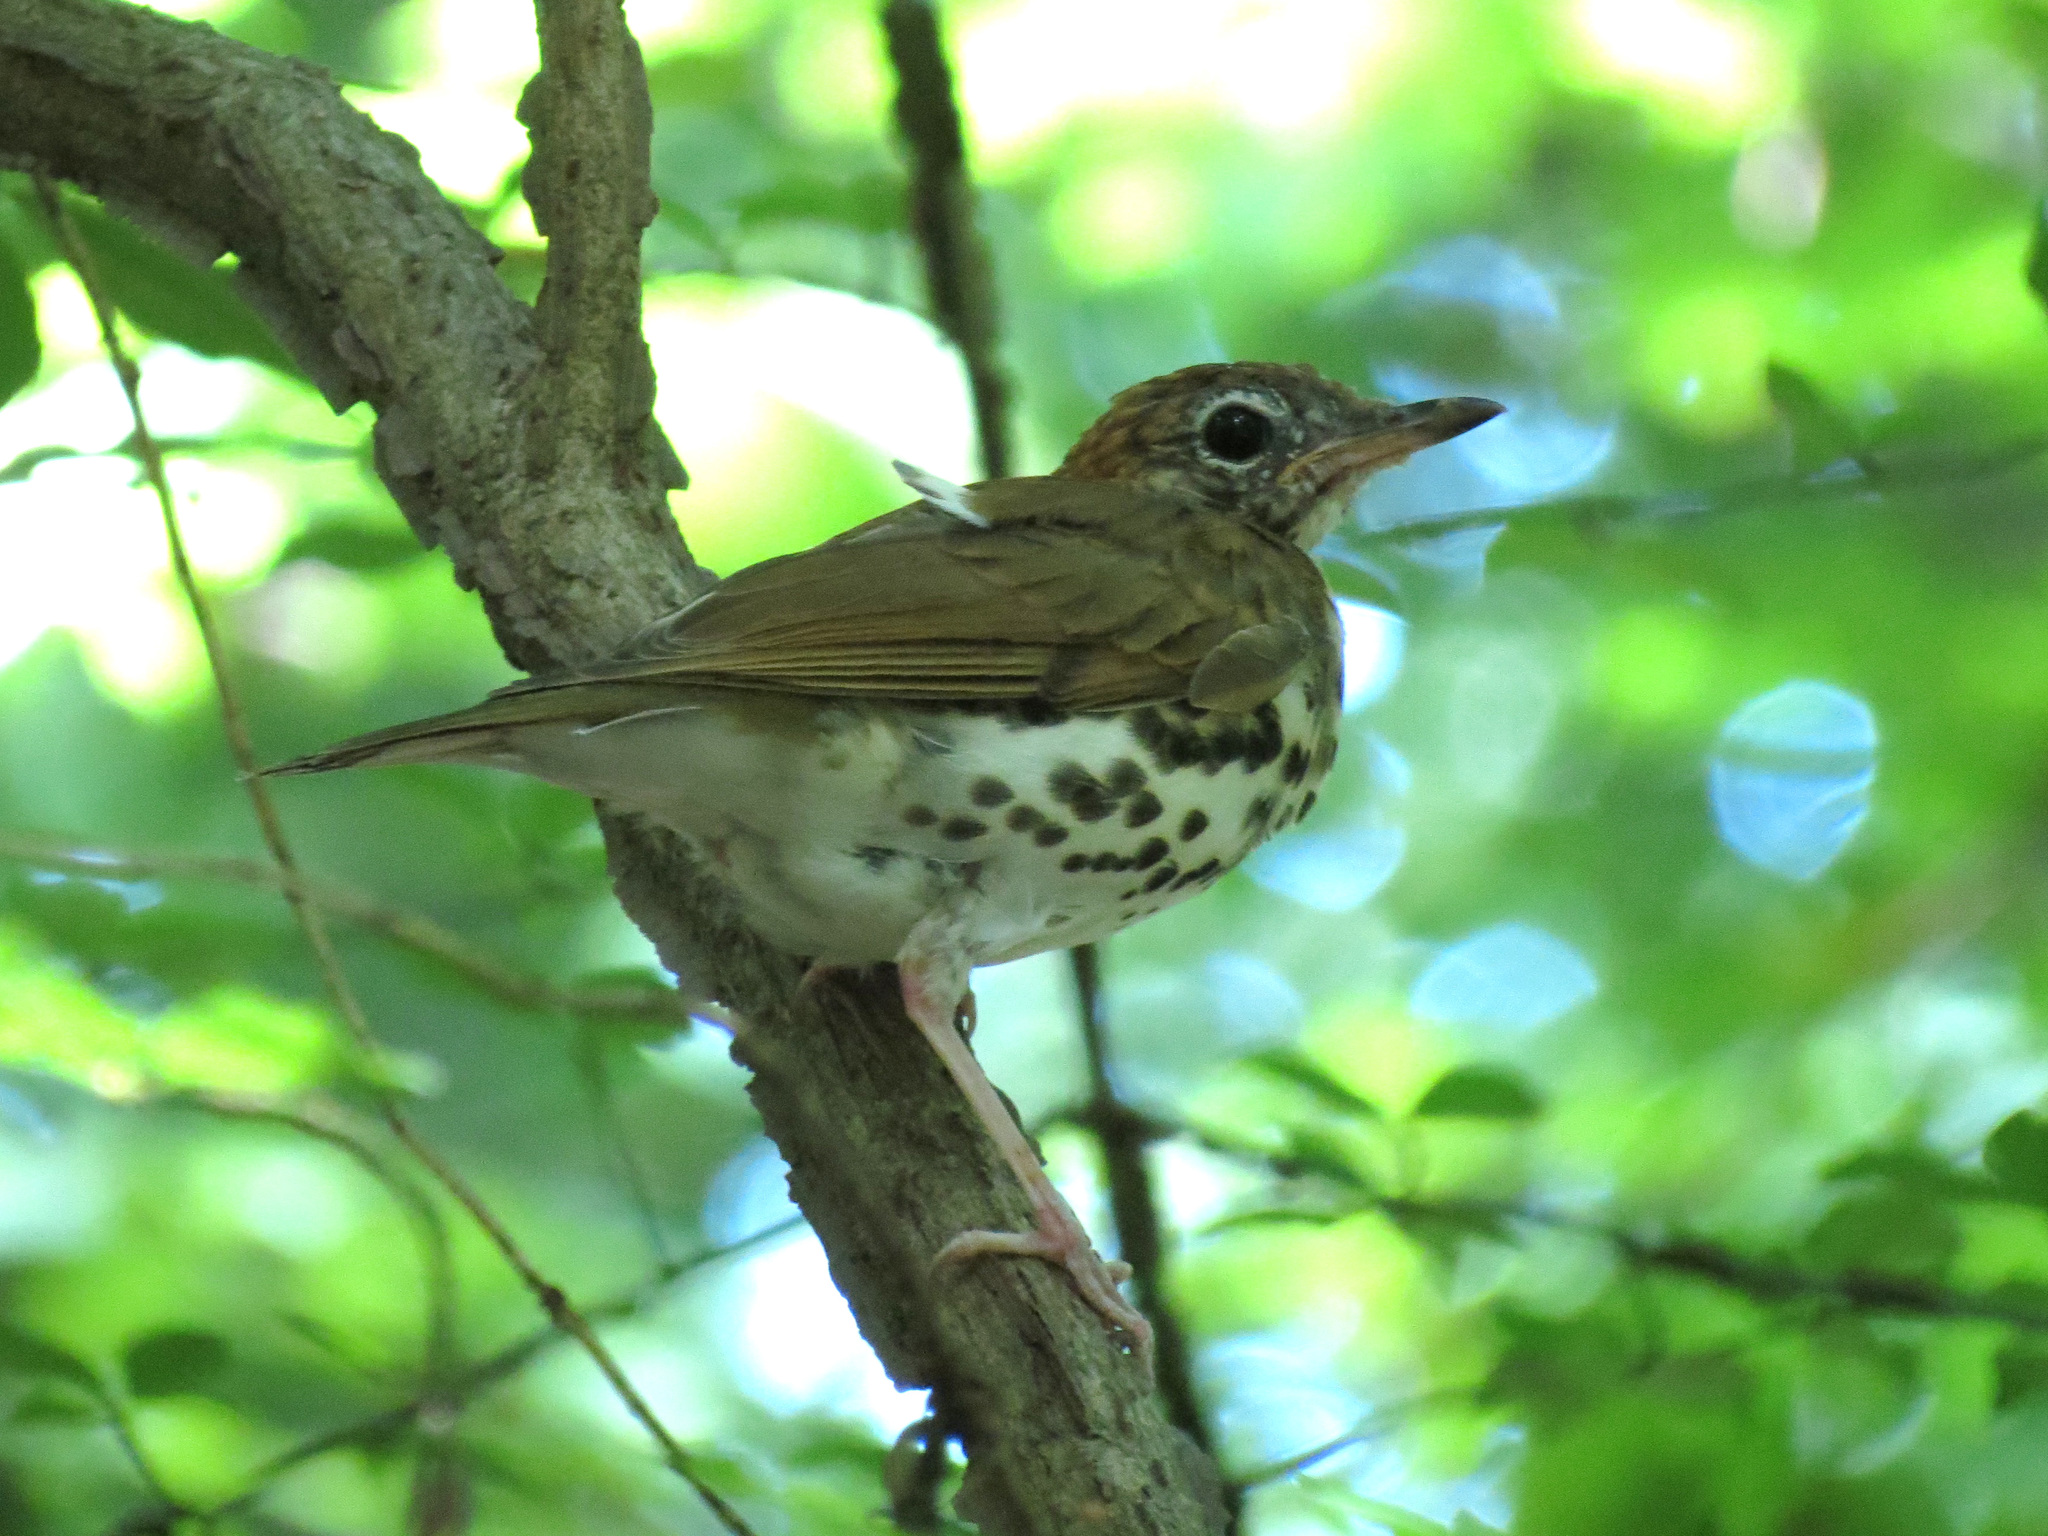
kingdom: Animalia
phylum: Chordata
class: Aves
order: Passeriformes
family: Turdidae
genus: Hylocichla
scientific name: Hylocichla mustelina
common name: Wood thrush
